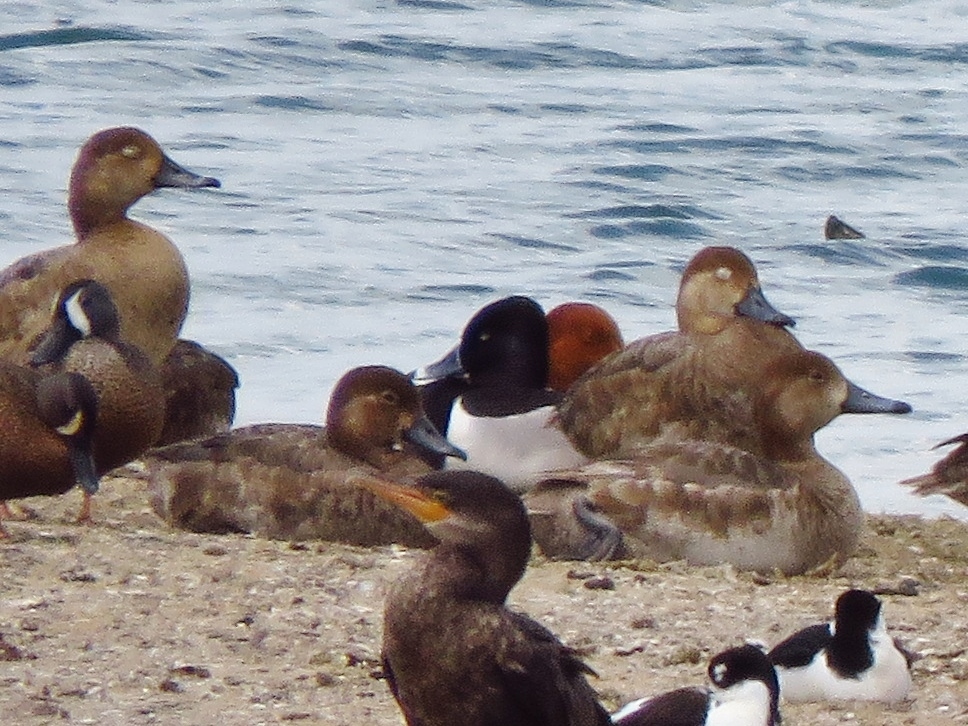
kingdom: Animalia
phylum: Chordata
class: Aves
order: Anseriformes
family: Anatidae
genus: Aythya
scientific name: Aythya collaris
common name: Ring-necked duck
